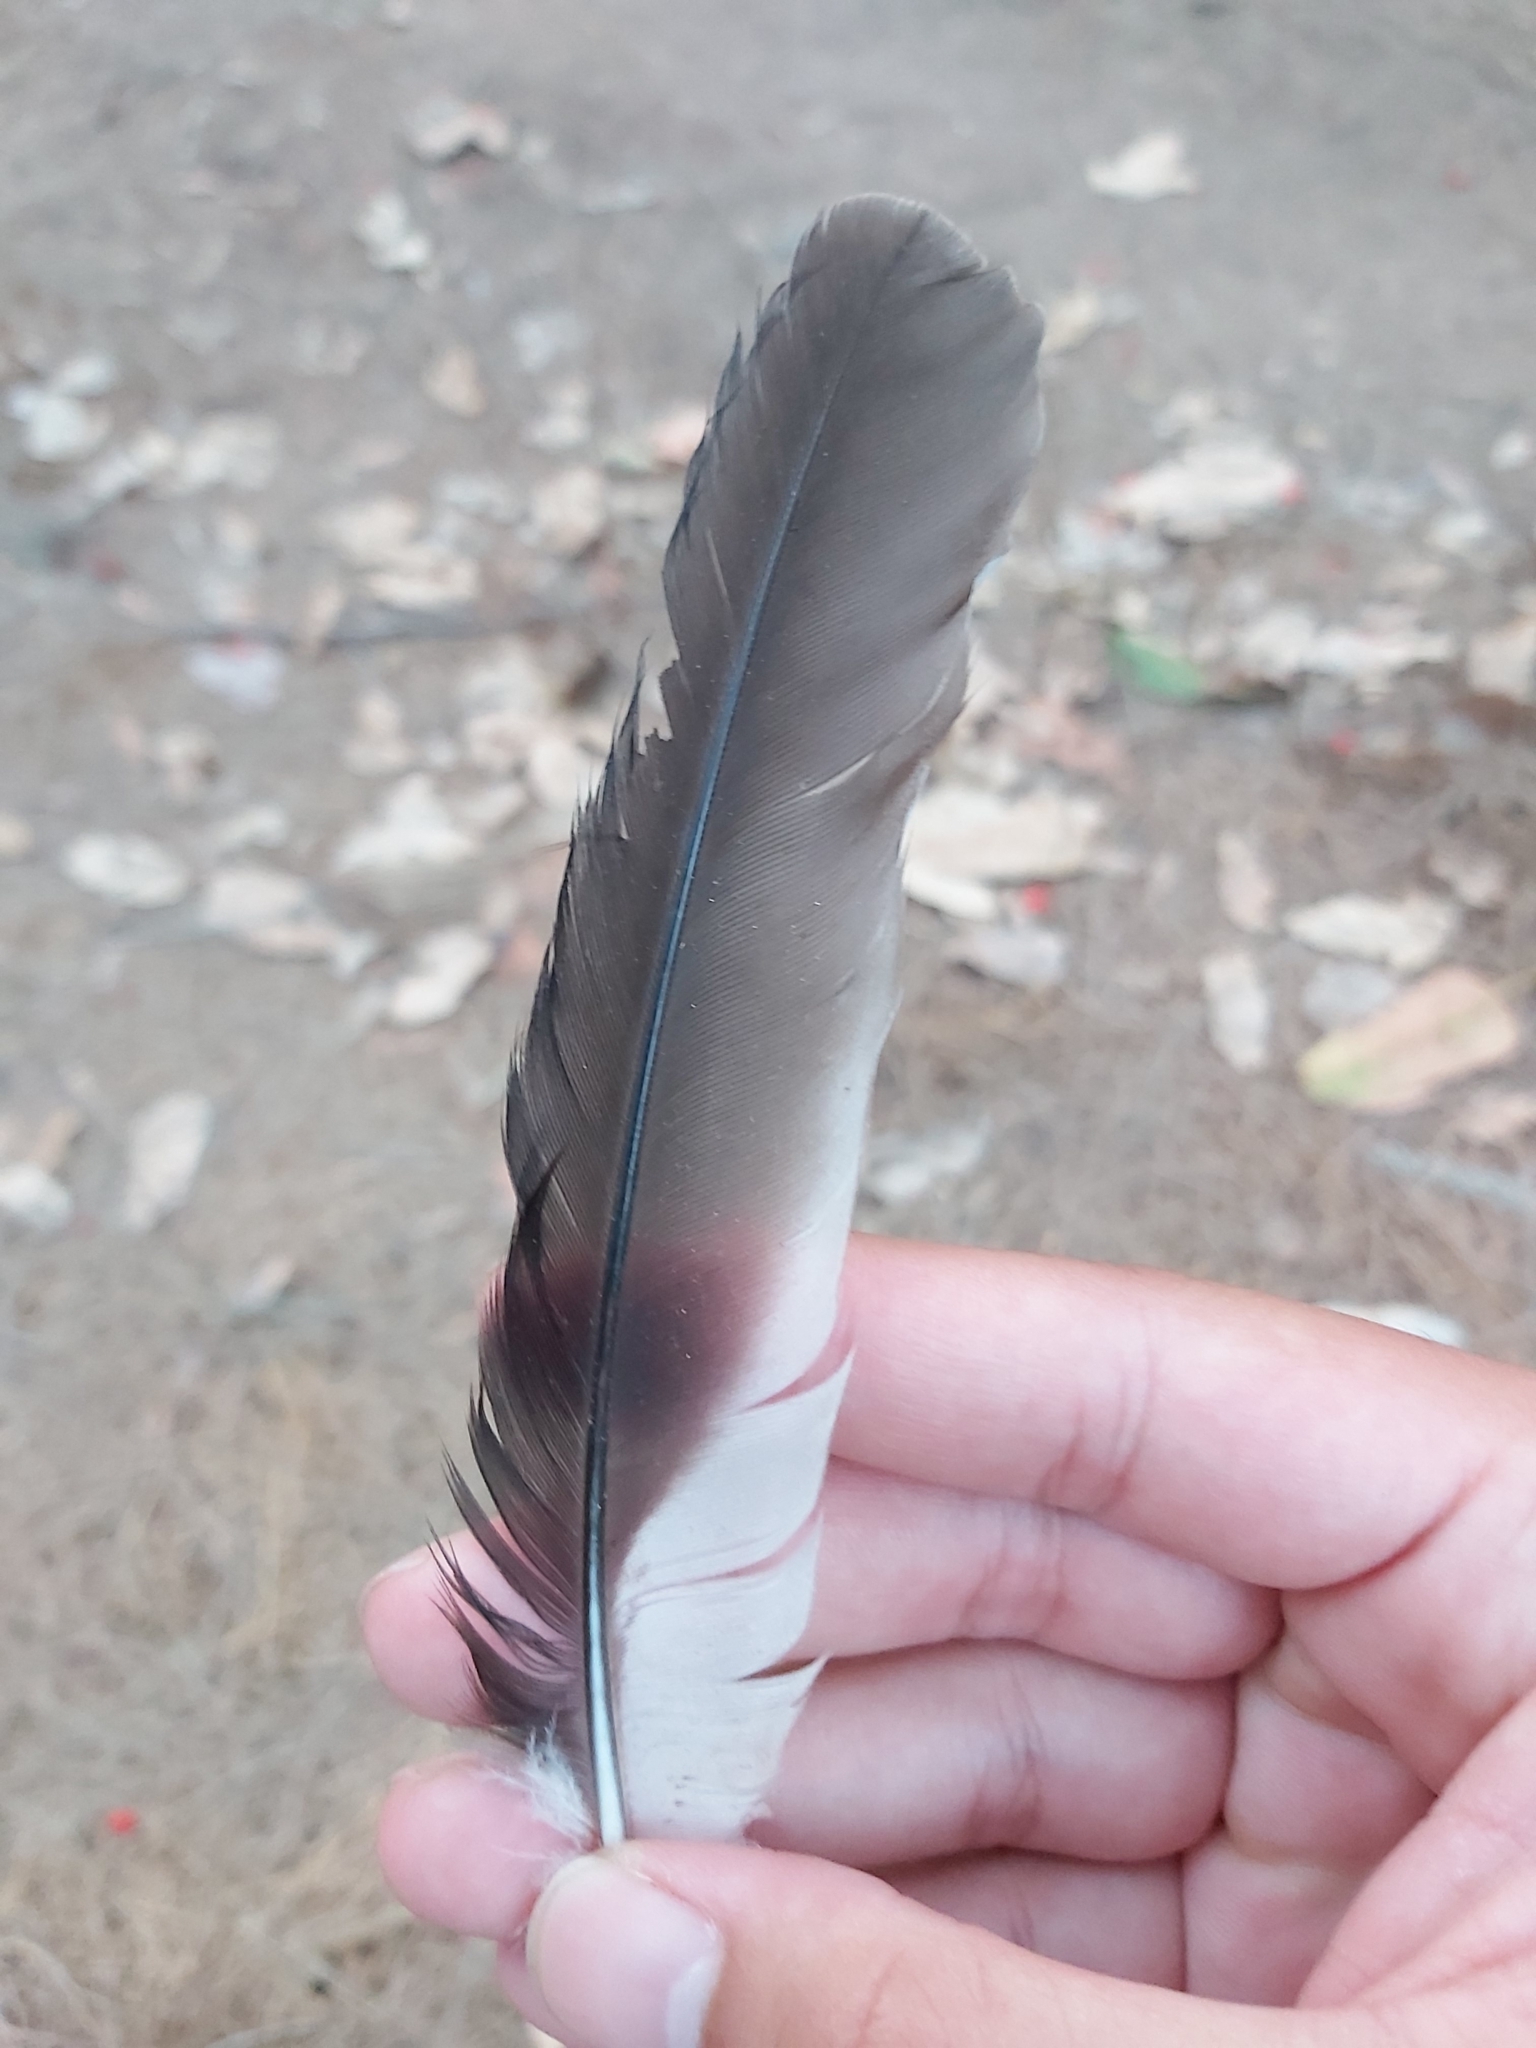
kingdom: Animalia
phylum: Chordata
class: Aves
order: Coraciiformes
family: Alcedinidae
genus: Dacelo
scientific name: Dacelo novaeguineae
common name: Laughing kookaburra
